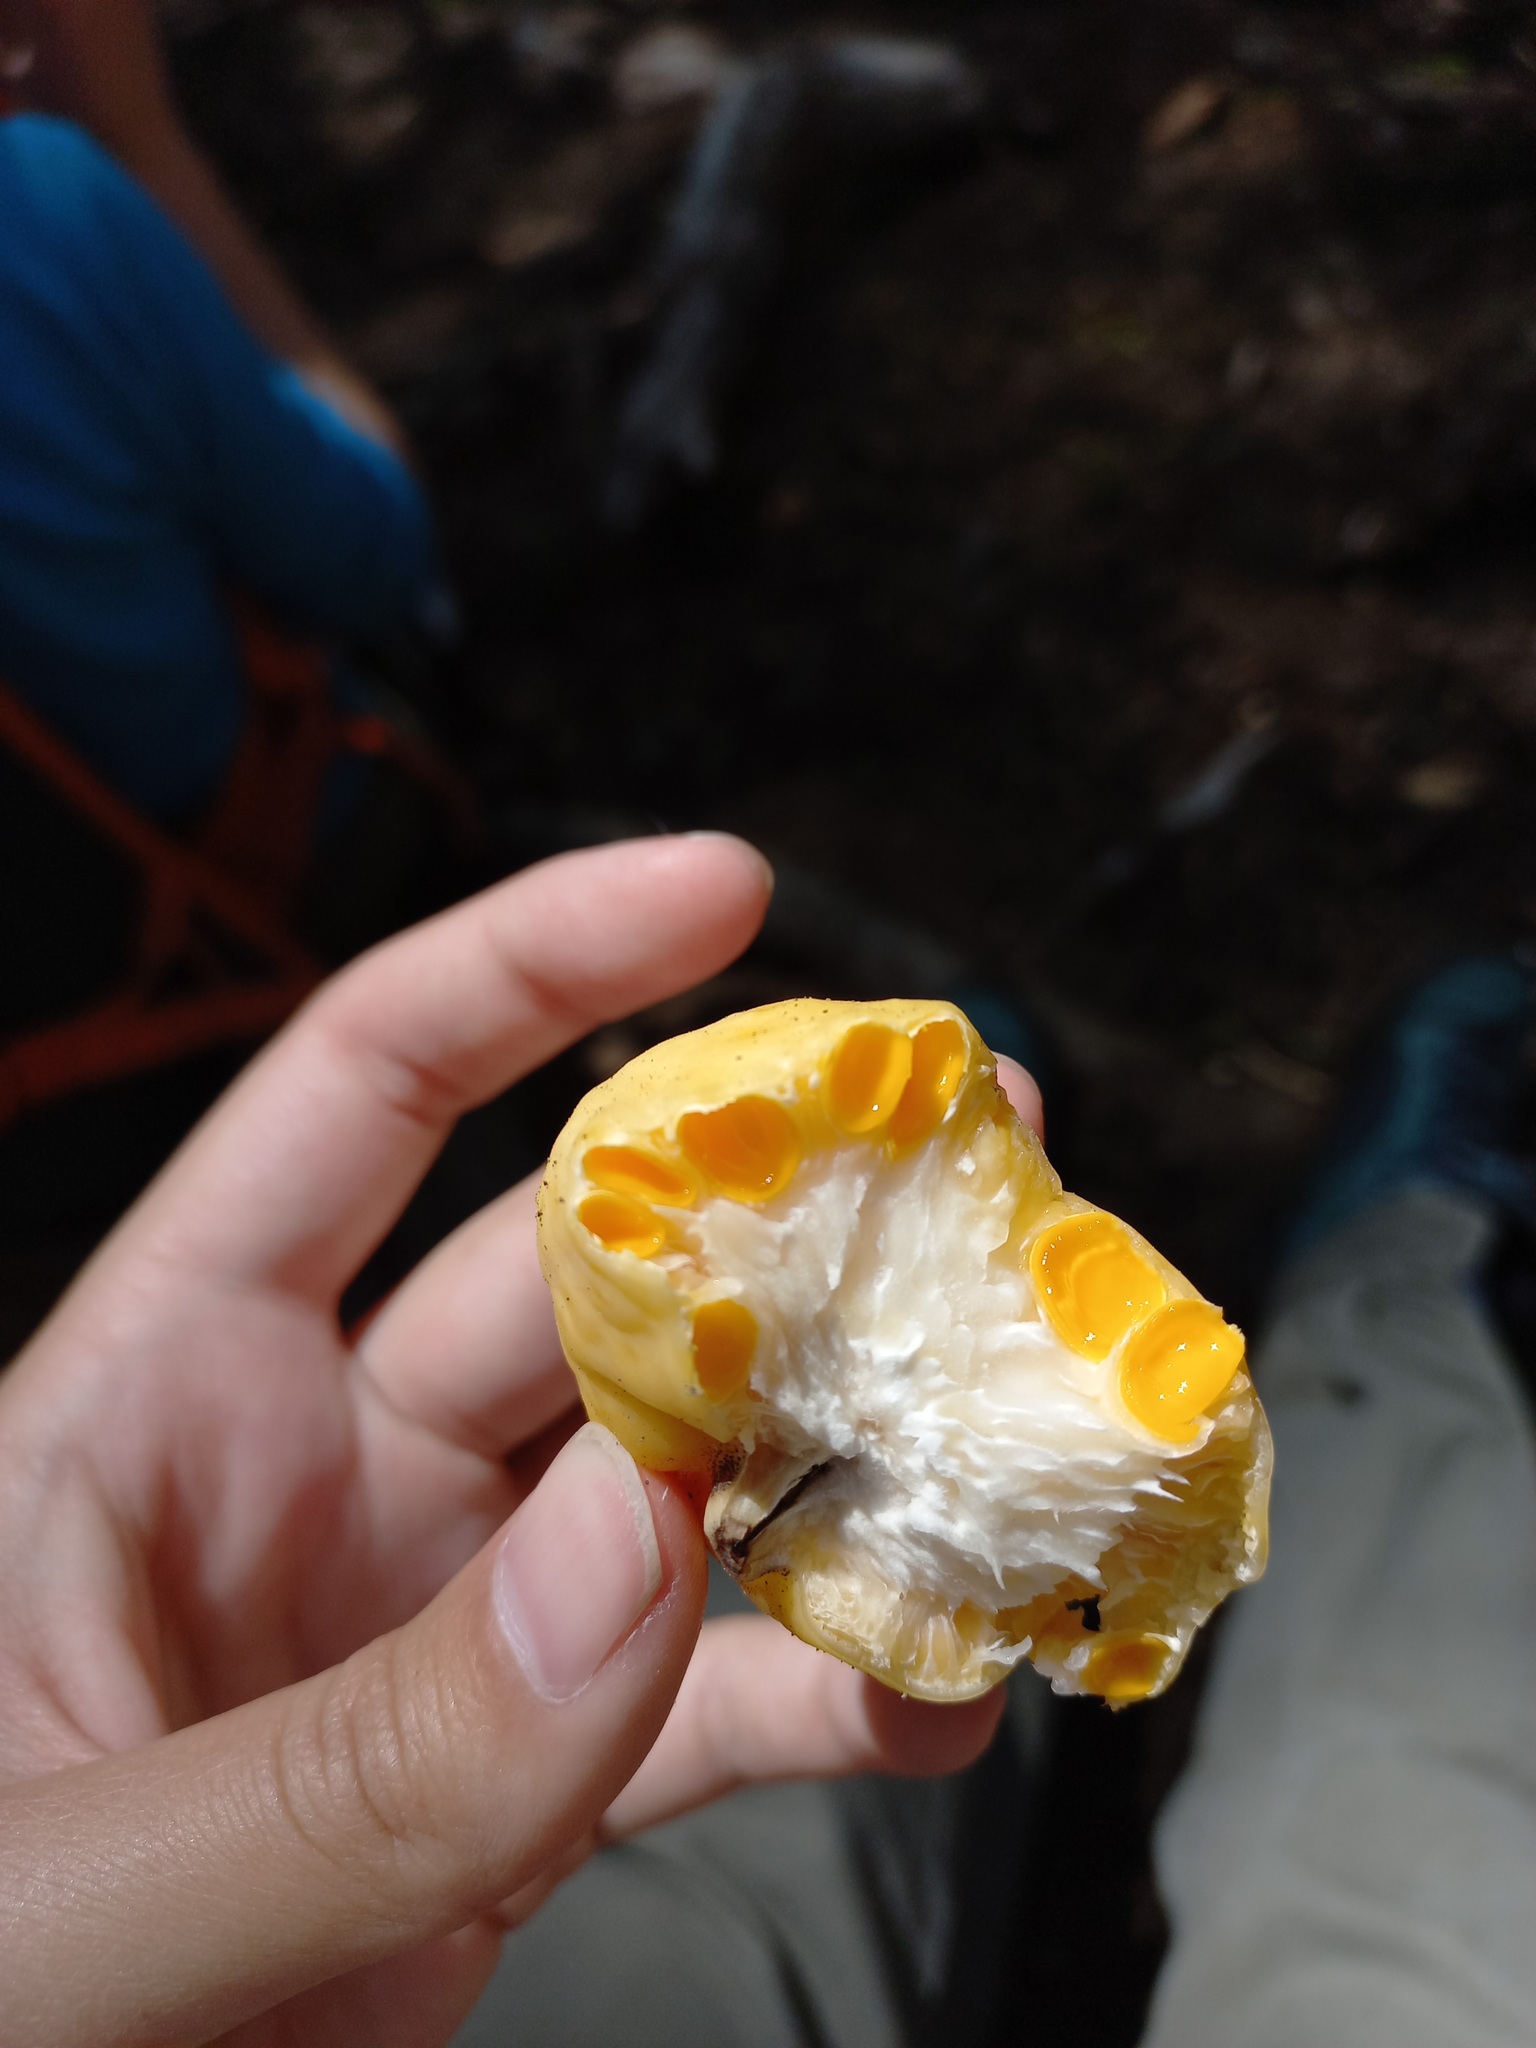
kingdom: Fungi
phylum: Ascomycota
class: Leotiomycetes
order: Cyttariales
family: Cyttariaceae
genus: Cyttaria
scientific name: Cyttaria darwinii
